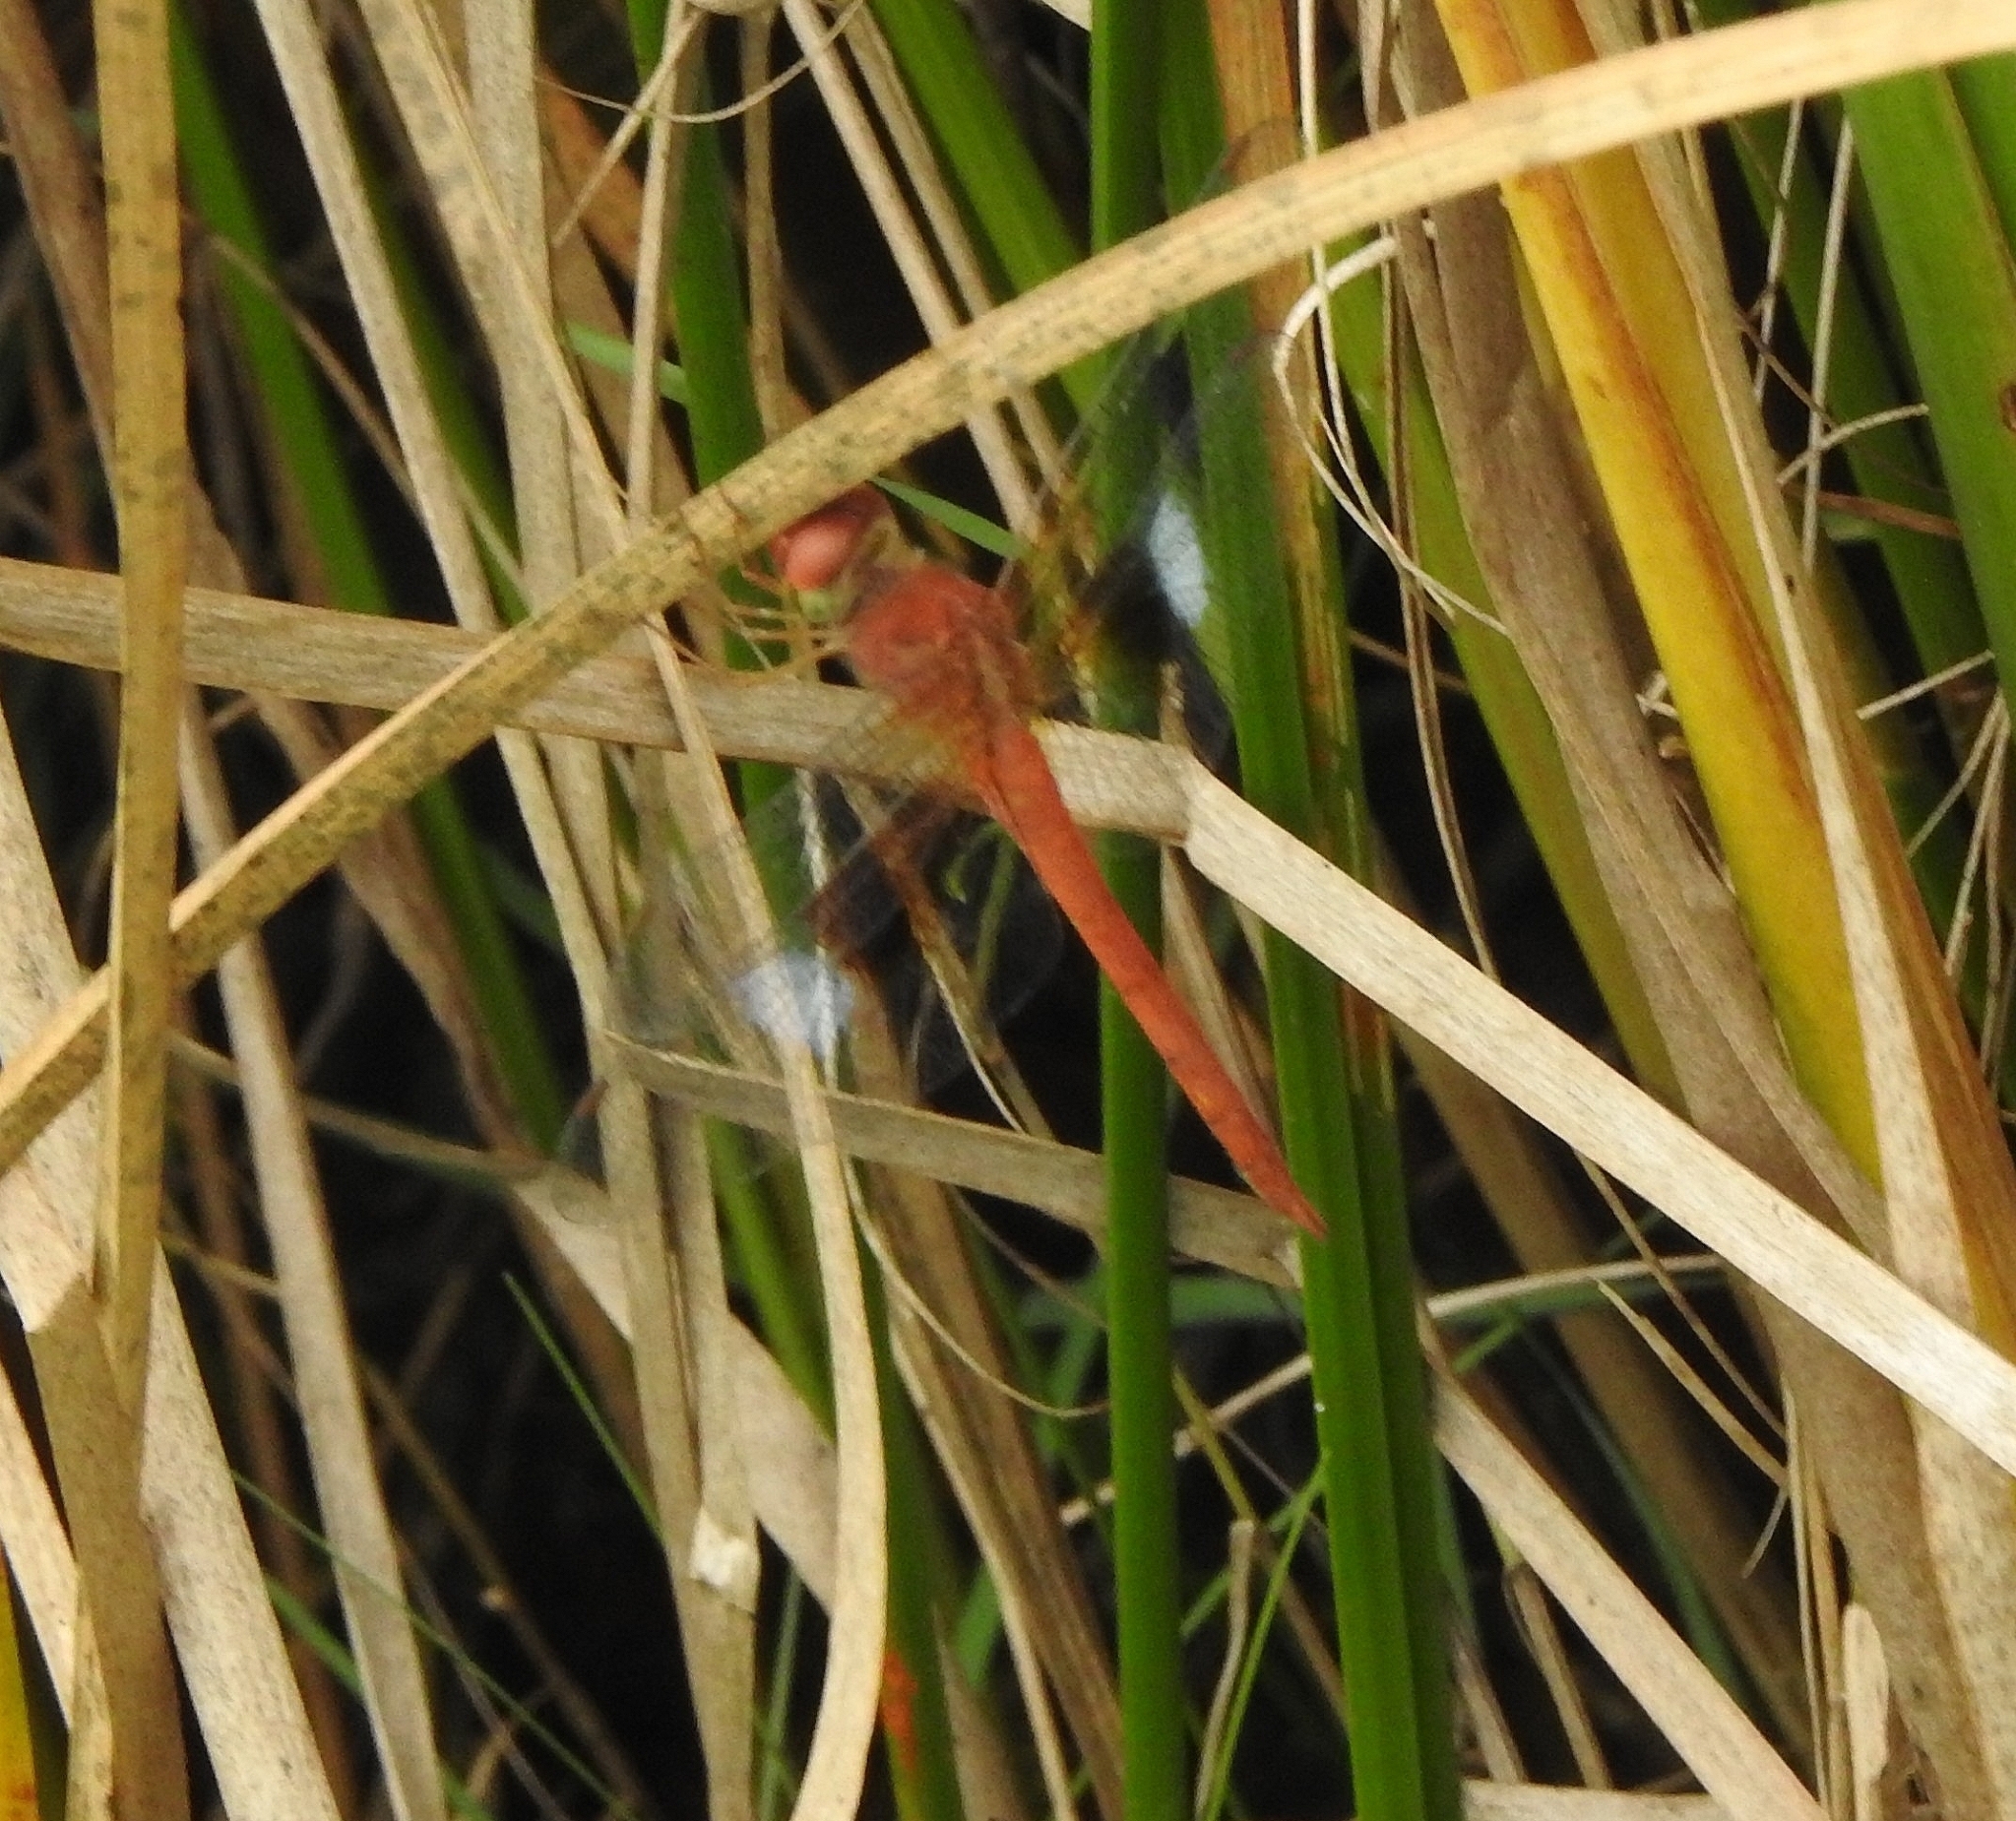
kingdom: Animalia
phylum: Arthropoda
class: Insecta
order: Odonata
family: Libellulidae
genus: Tholymis
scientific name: Tholymis tillarga
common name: Coral-tailed cloud wing
